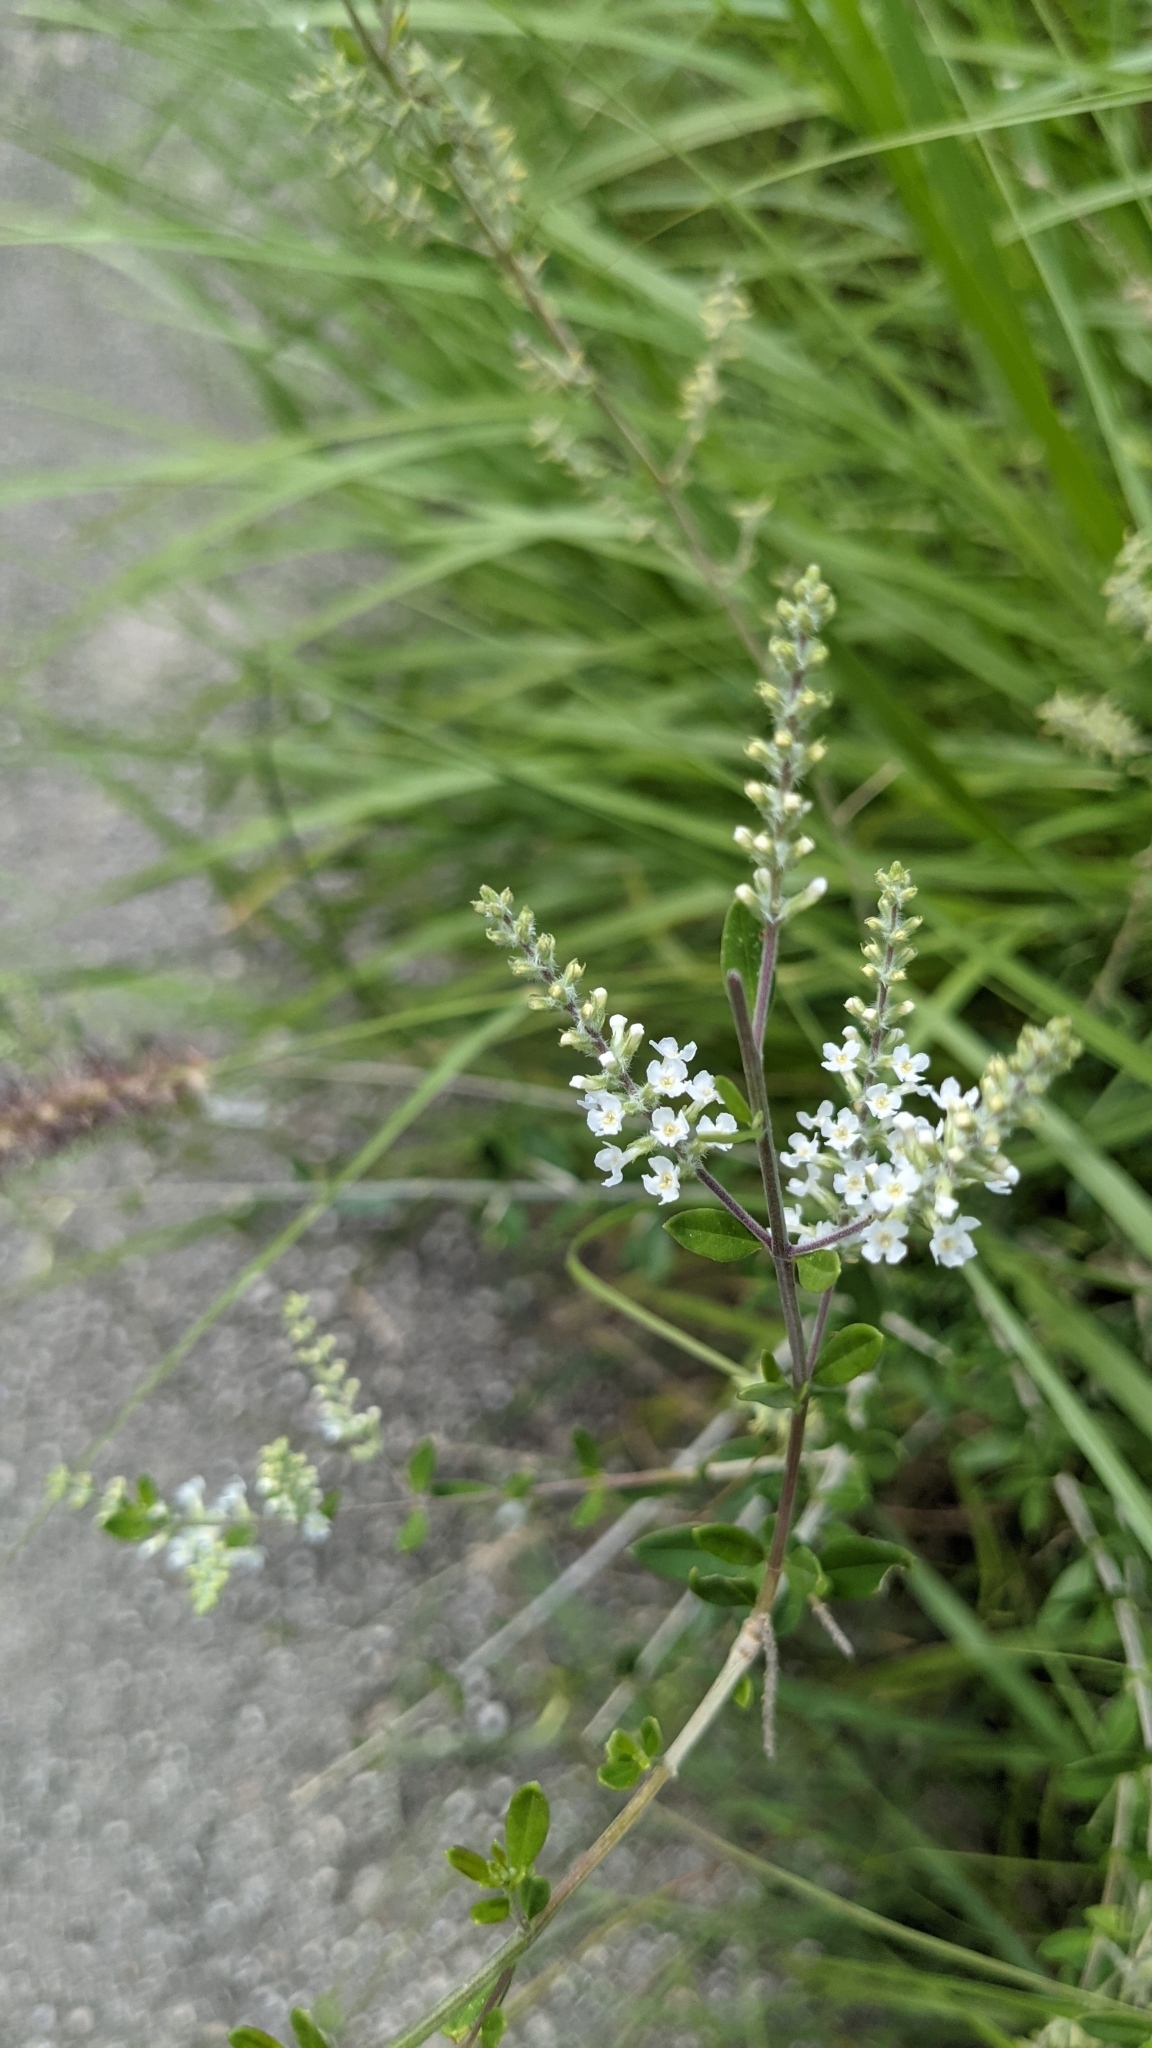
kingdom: Plantae
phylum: Tracheophyta
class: Magnoliopsida
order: Lamiales
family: Verbenaceae
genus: Aloysia
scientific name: Aloysia gratissima
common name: Common bee-brush
